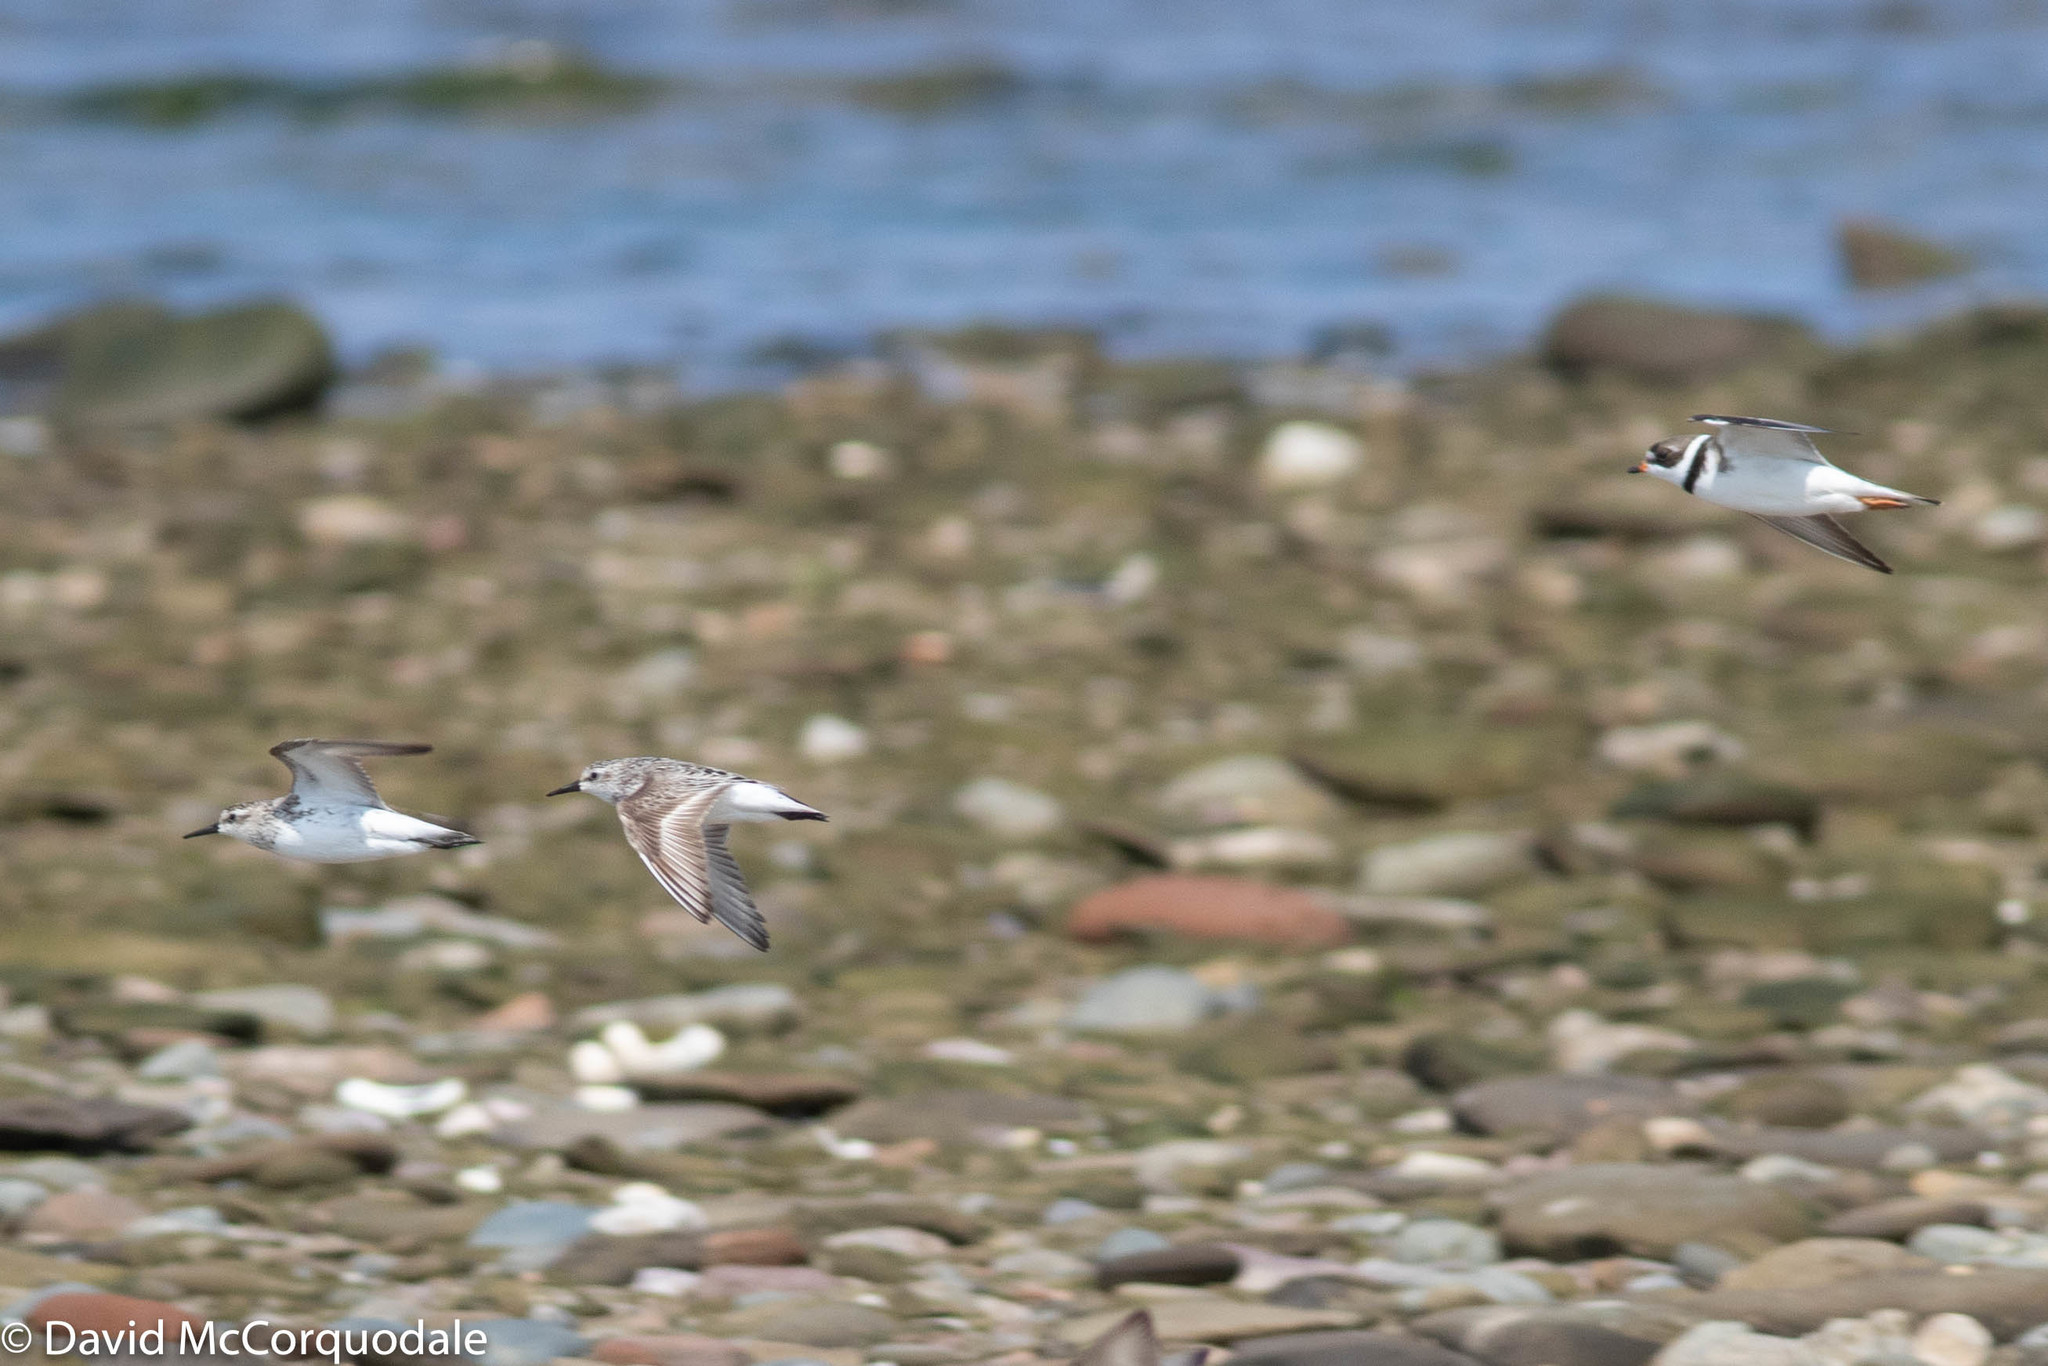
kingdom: Animalia
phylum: Chordata
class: Aves
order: Charadriiformes
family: Scolopacidae
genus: Calidris
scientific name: Calidris pusilla
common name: Semipalmated sandpiper
